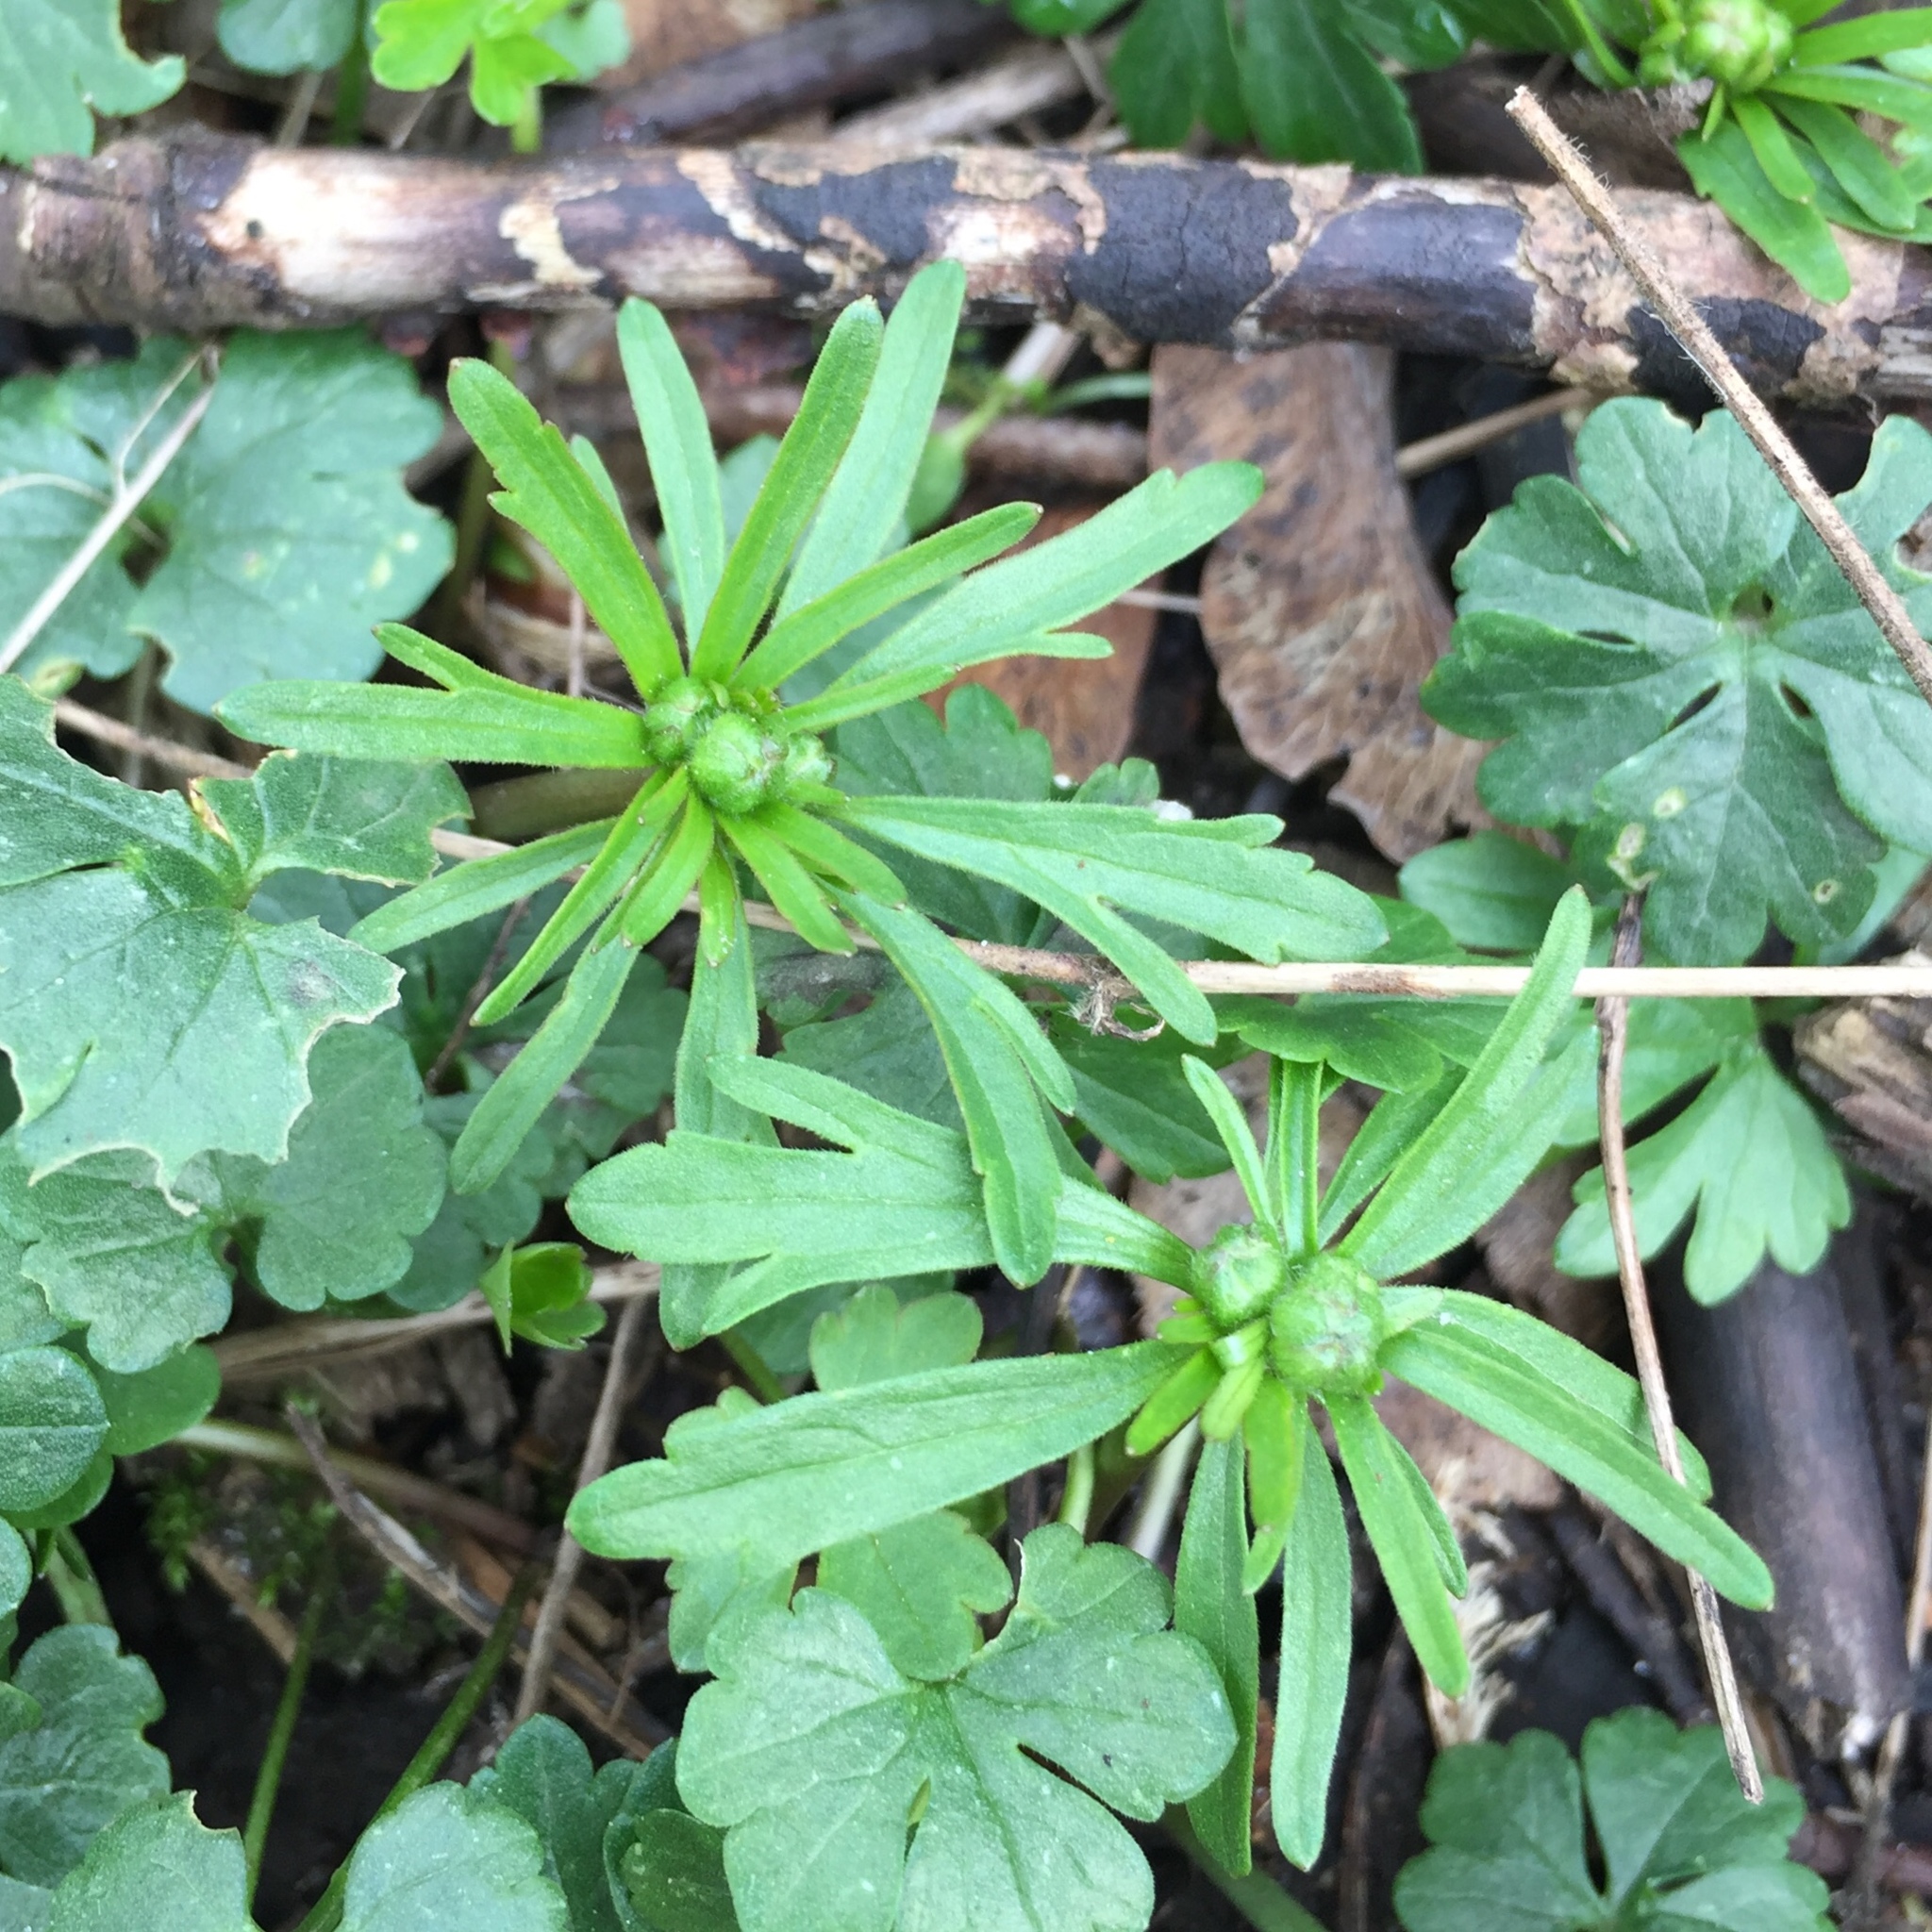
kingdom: Plantae
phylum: Tracheophyta
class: Magnoliopsida
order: Ranunculales
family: Ranunculaceae
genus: Ranunculus
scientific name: Ranunculus auricomus
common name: Goldilocks buttercup
